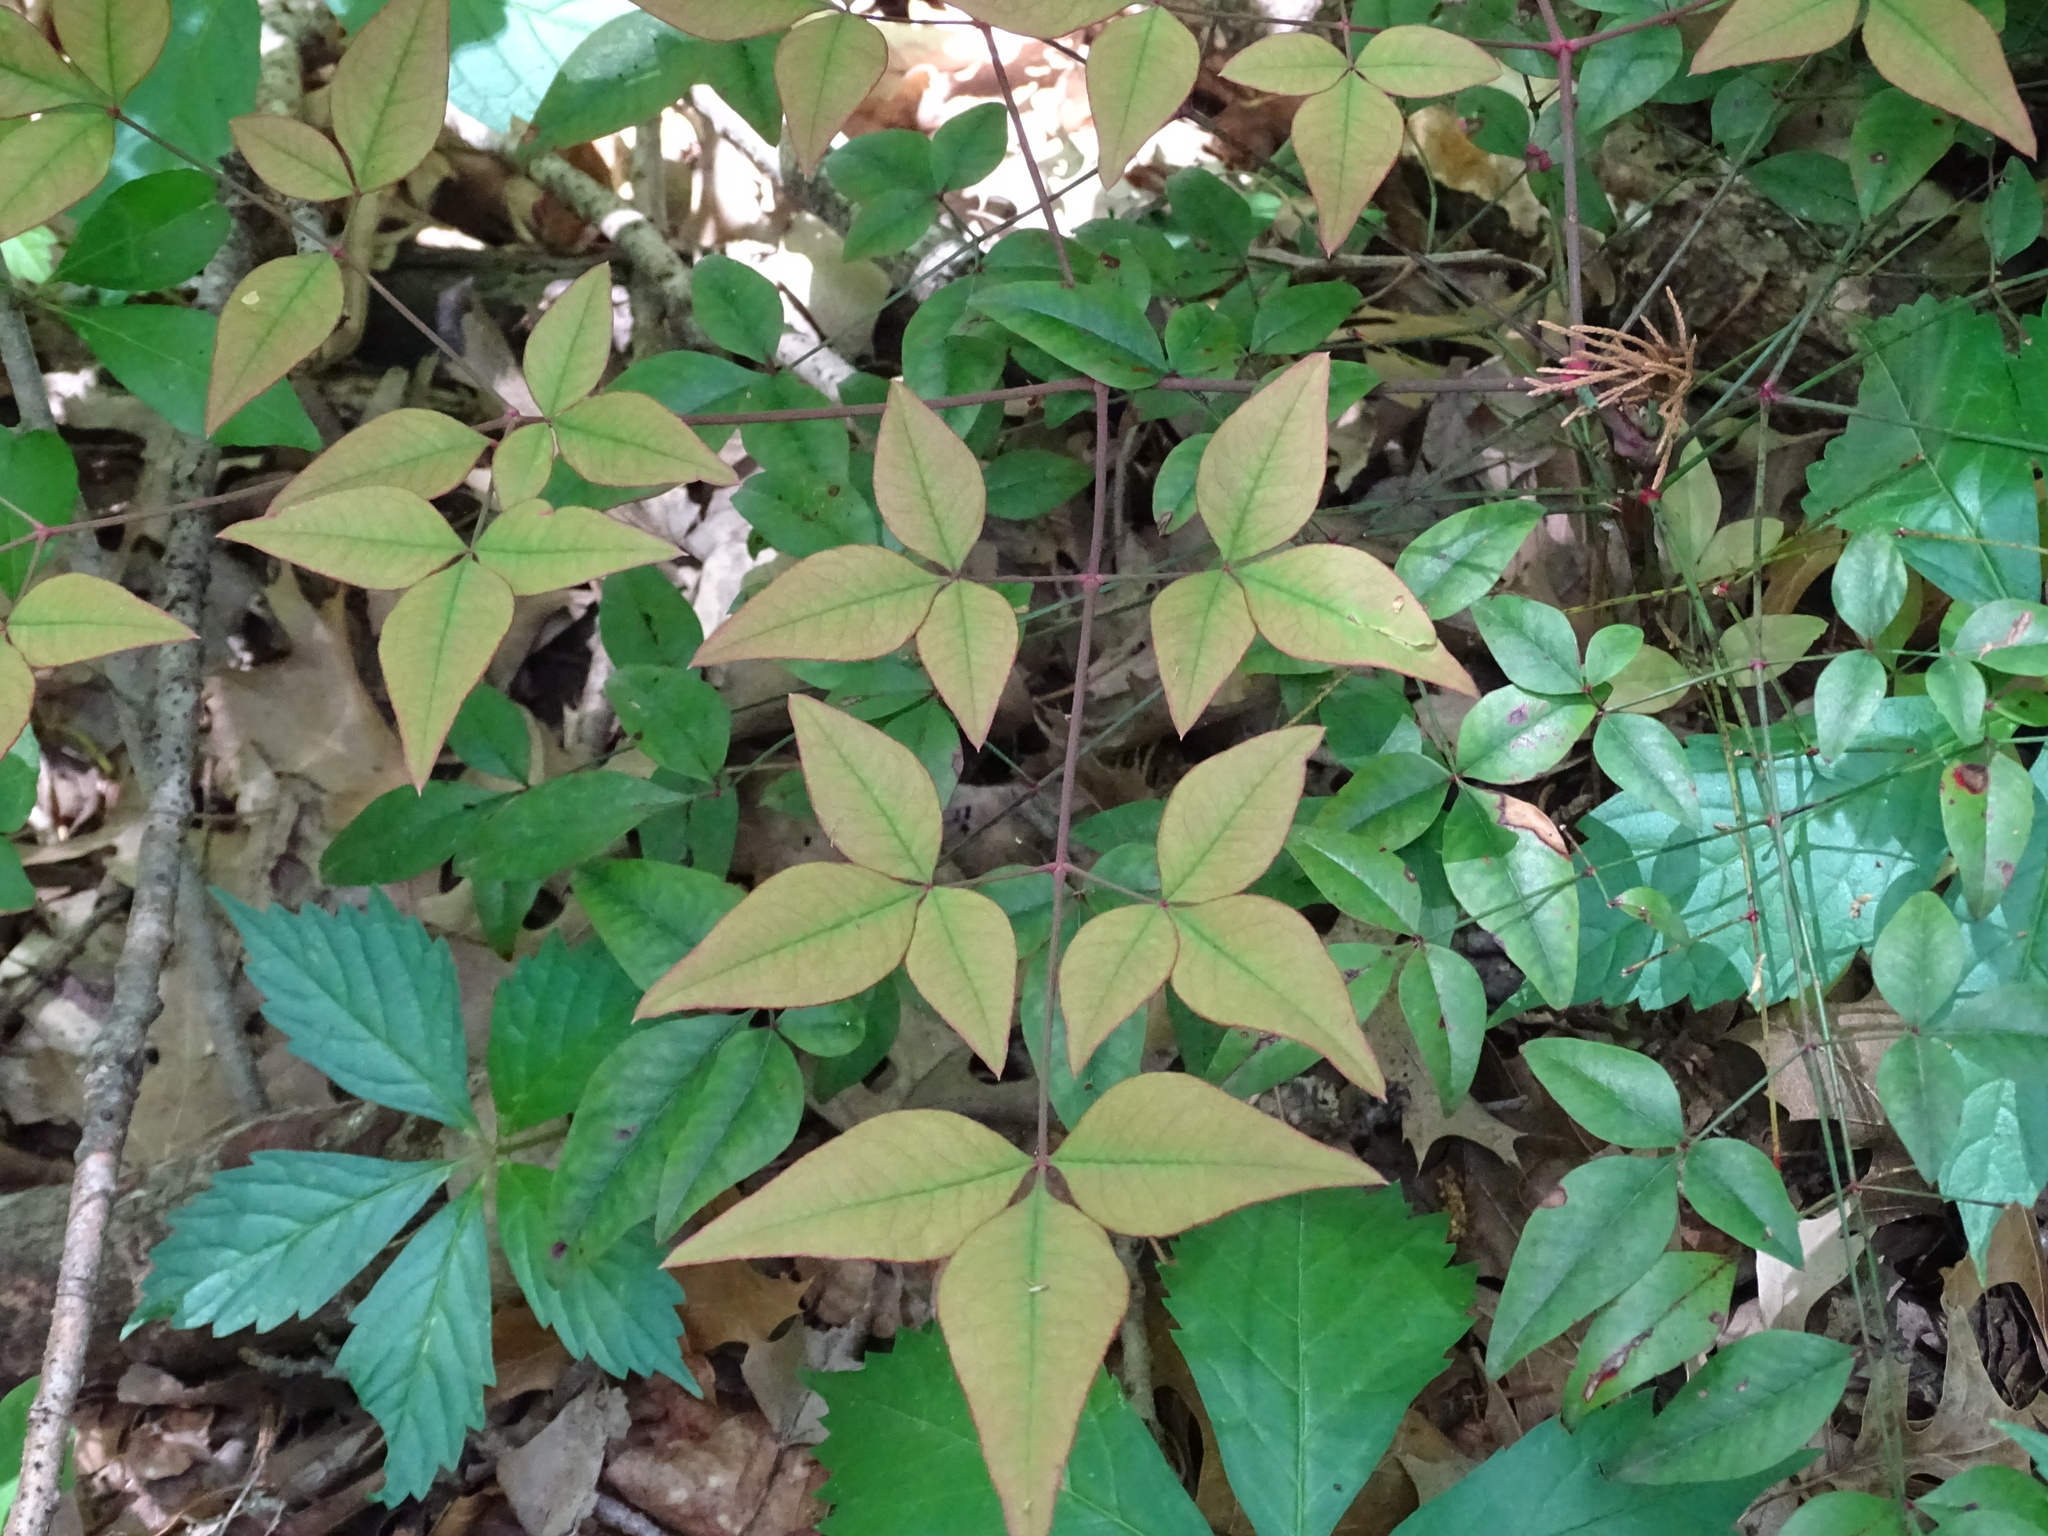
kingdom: Plantae
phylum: Tracheophyta
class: Magnoliopsida
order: Ranunculales
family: Berberidaceae
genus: Nandina
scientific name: Nandina domestica
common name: Sacred bamboo
